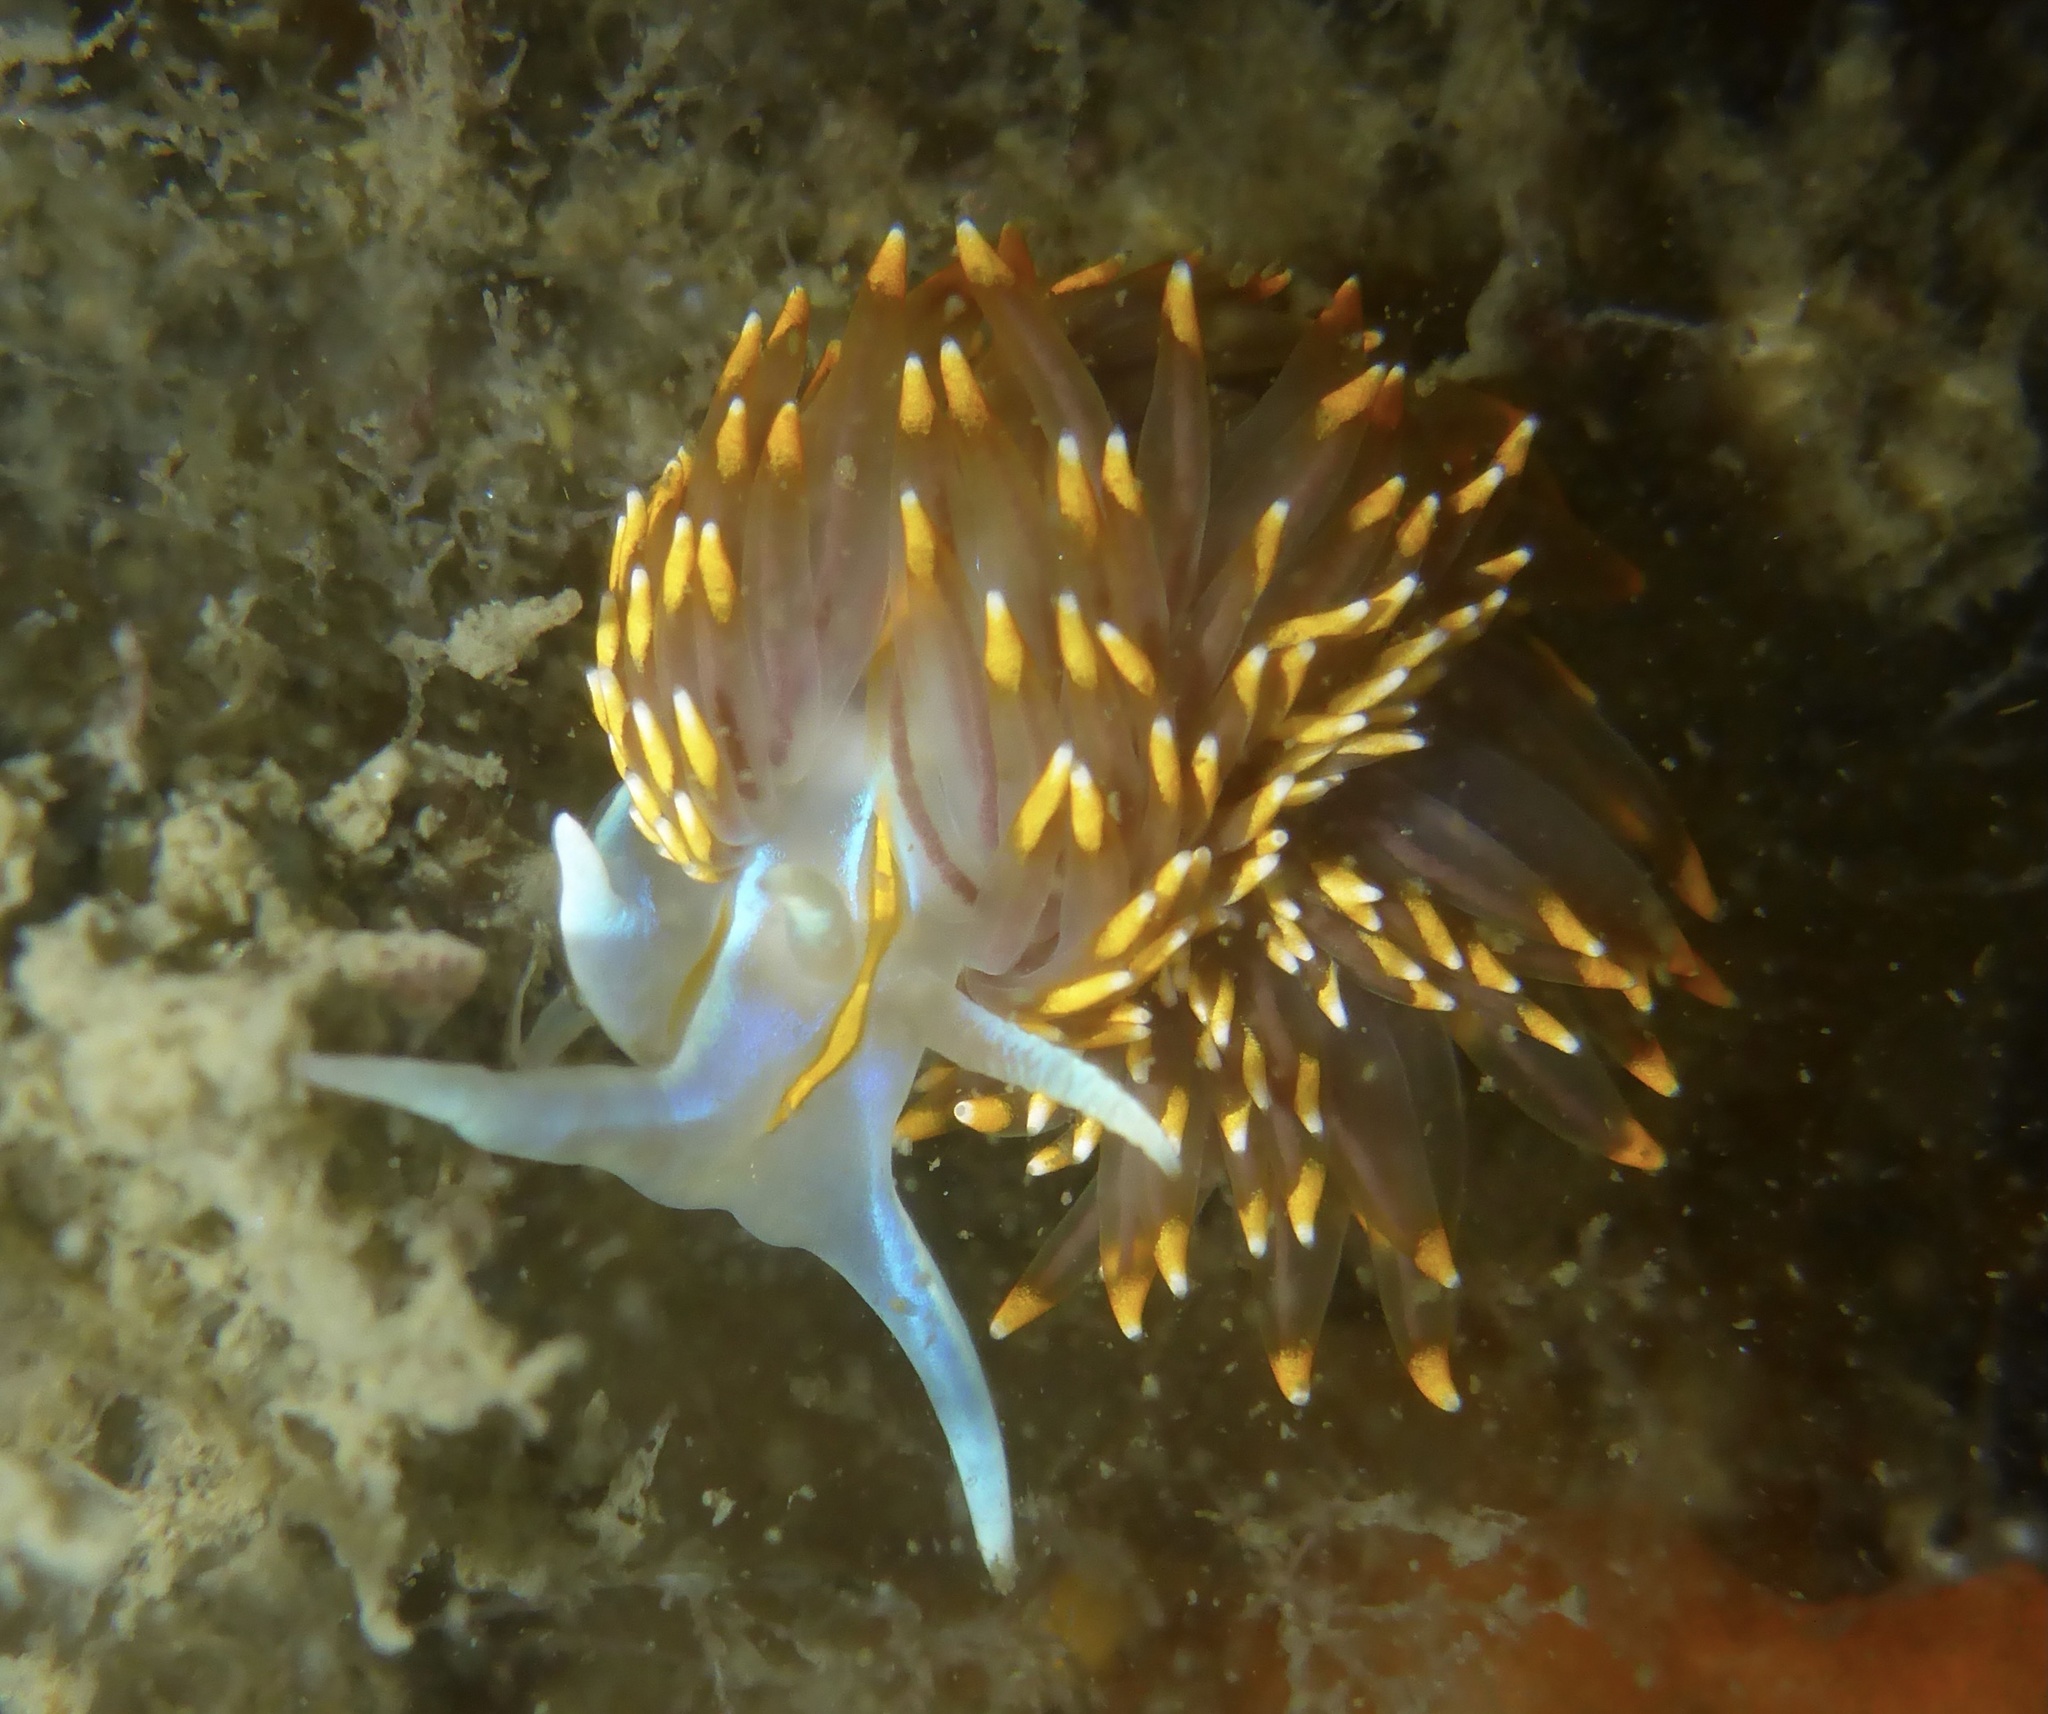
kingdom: Animalia
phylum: Mollusca
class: Gastropoda
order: Nudibranchia
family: Myrrhinidae
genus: Hermissenda
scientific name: Hermissenda opalescens
